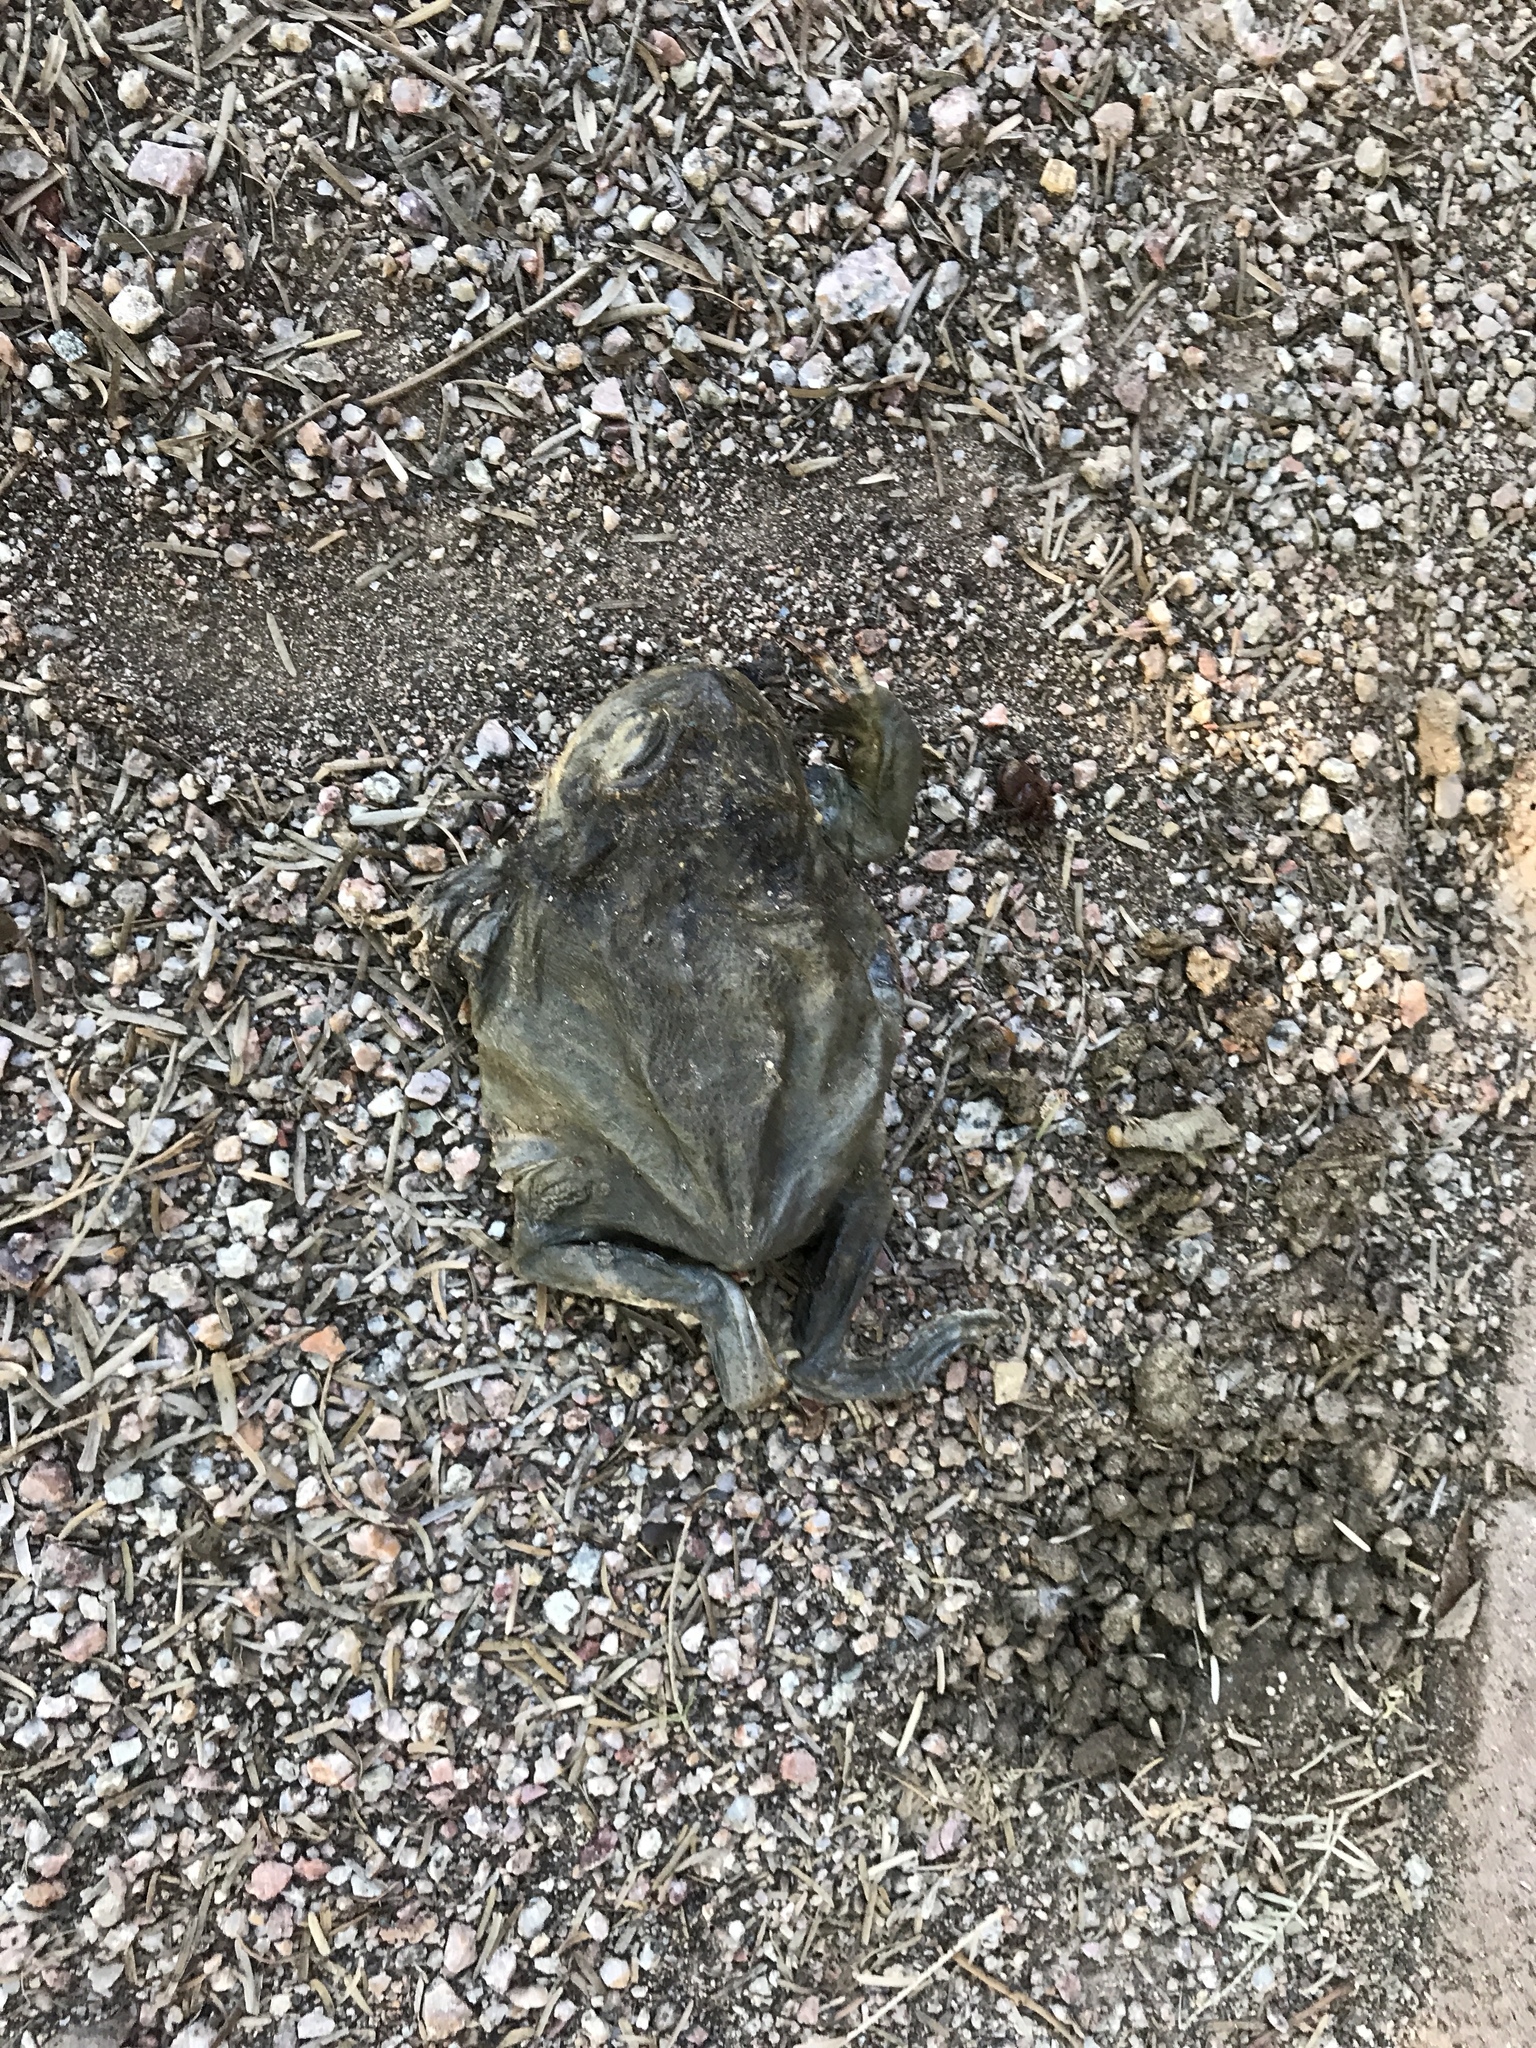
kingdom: Animalia
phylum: Chordata
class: Amphibia
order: Anura
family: Bufonidae
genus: Incilius
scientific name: Incilius alvarius
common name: Sonoran desert toad
